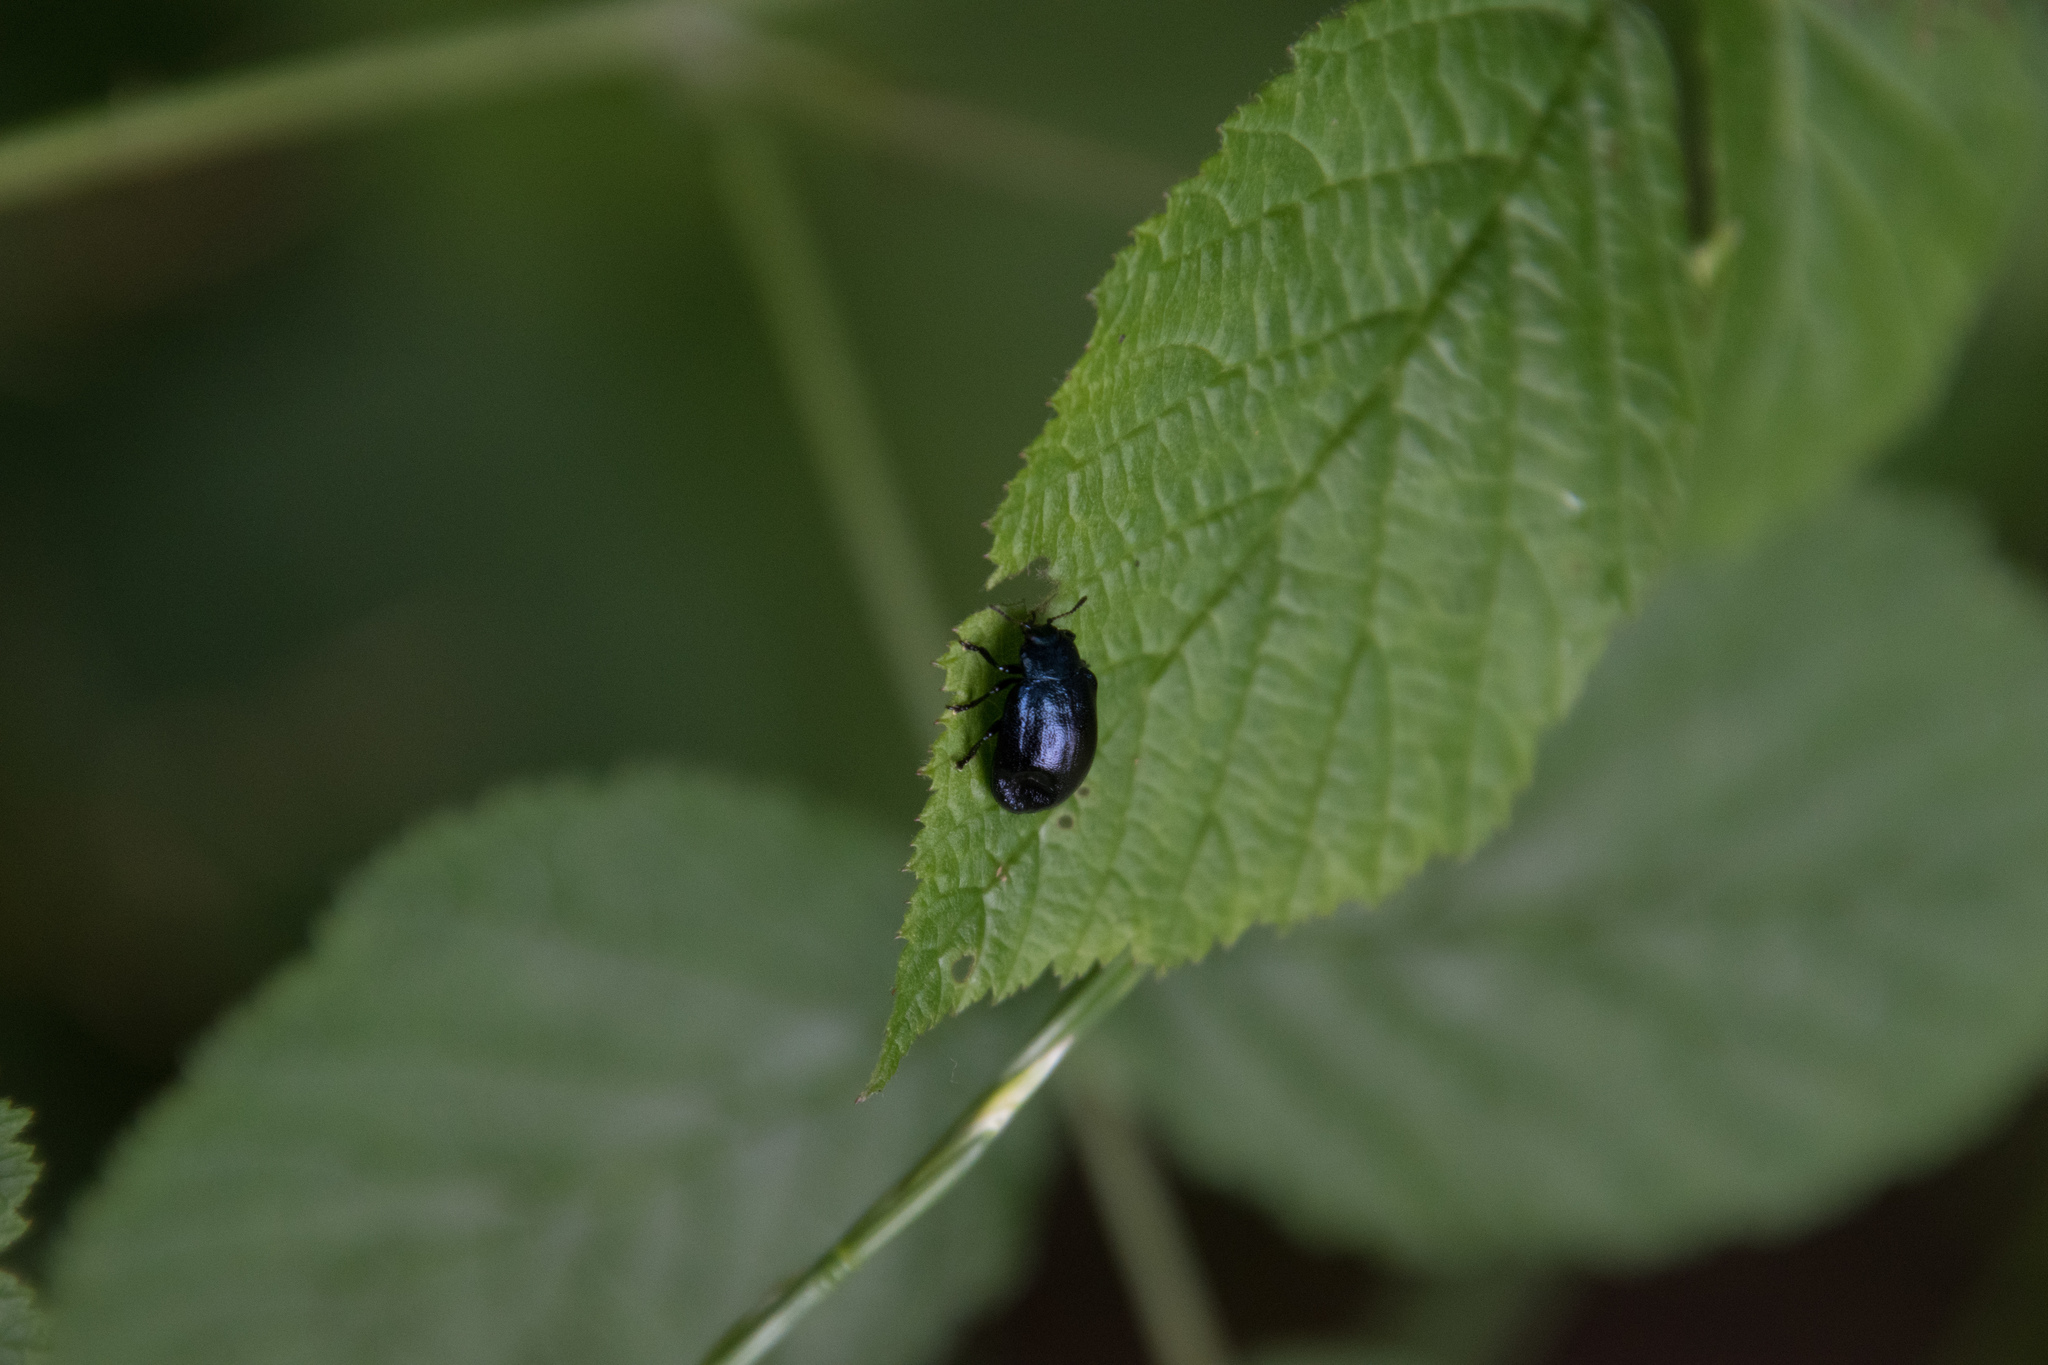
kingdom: Animalia
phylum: Arthropoda
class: Insecta
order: Coleoptera
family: Chrysomelidae
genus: Plagiosterna
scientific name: Plagiosterna aenea
